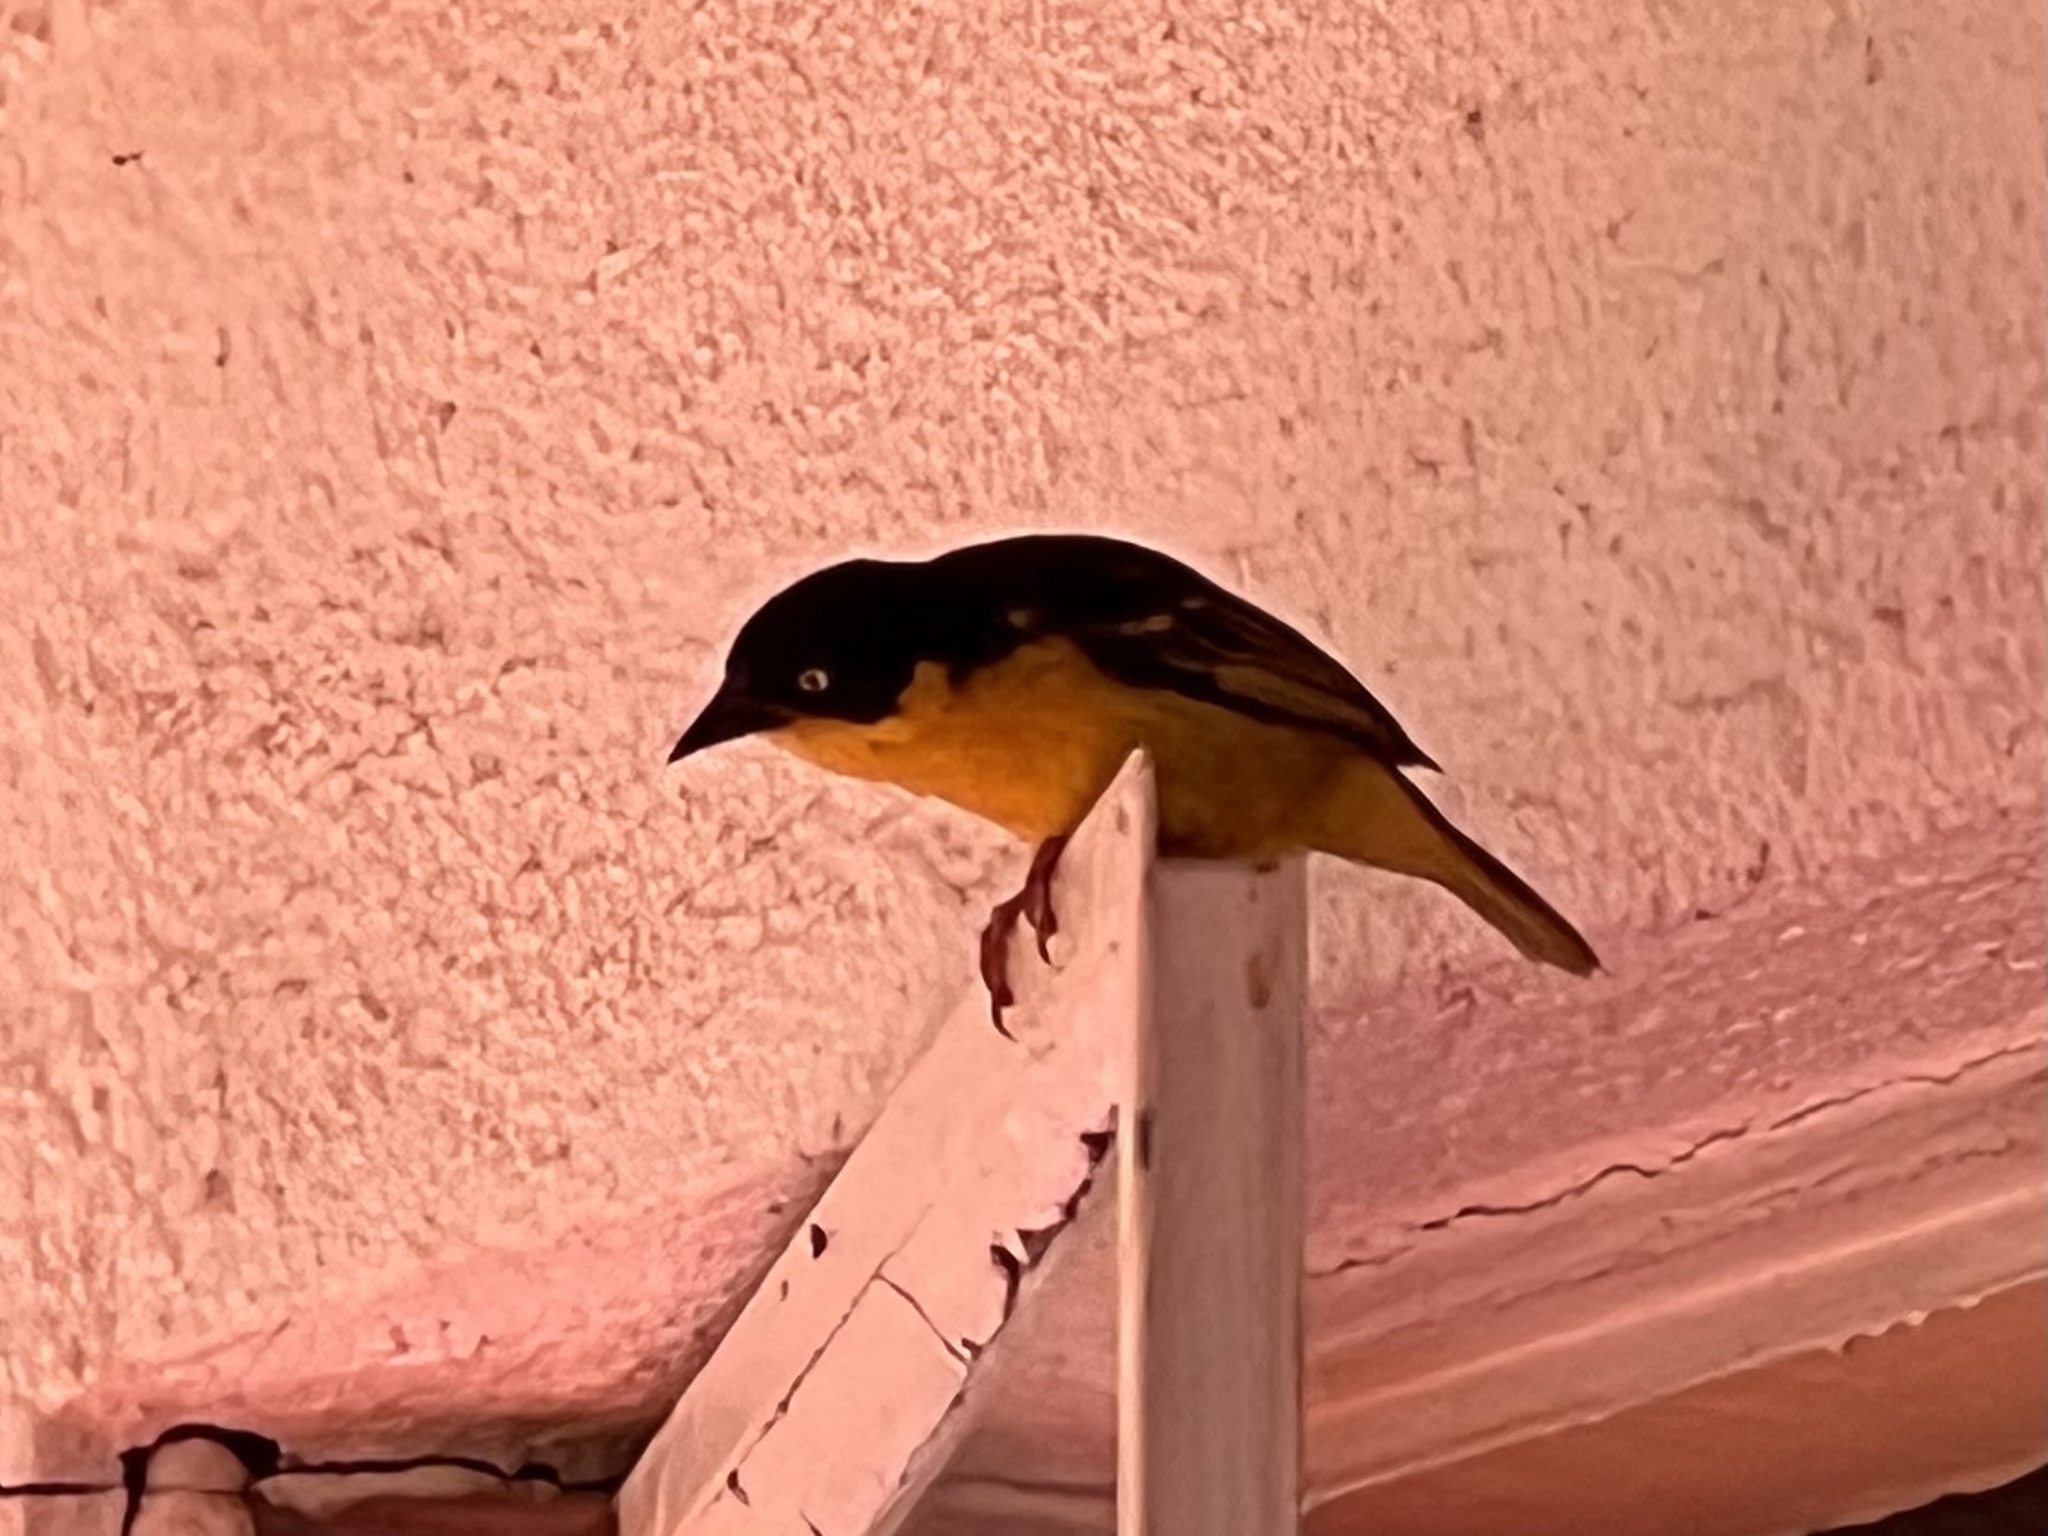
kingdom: Animalia
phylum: Chordata
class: Aves
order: Passeriformes
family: Ploceidae
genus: Ploceus
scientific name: Ploceus baglafecht
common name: Baglafecht weaver
